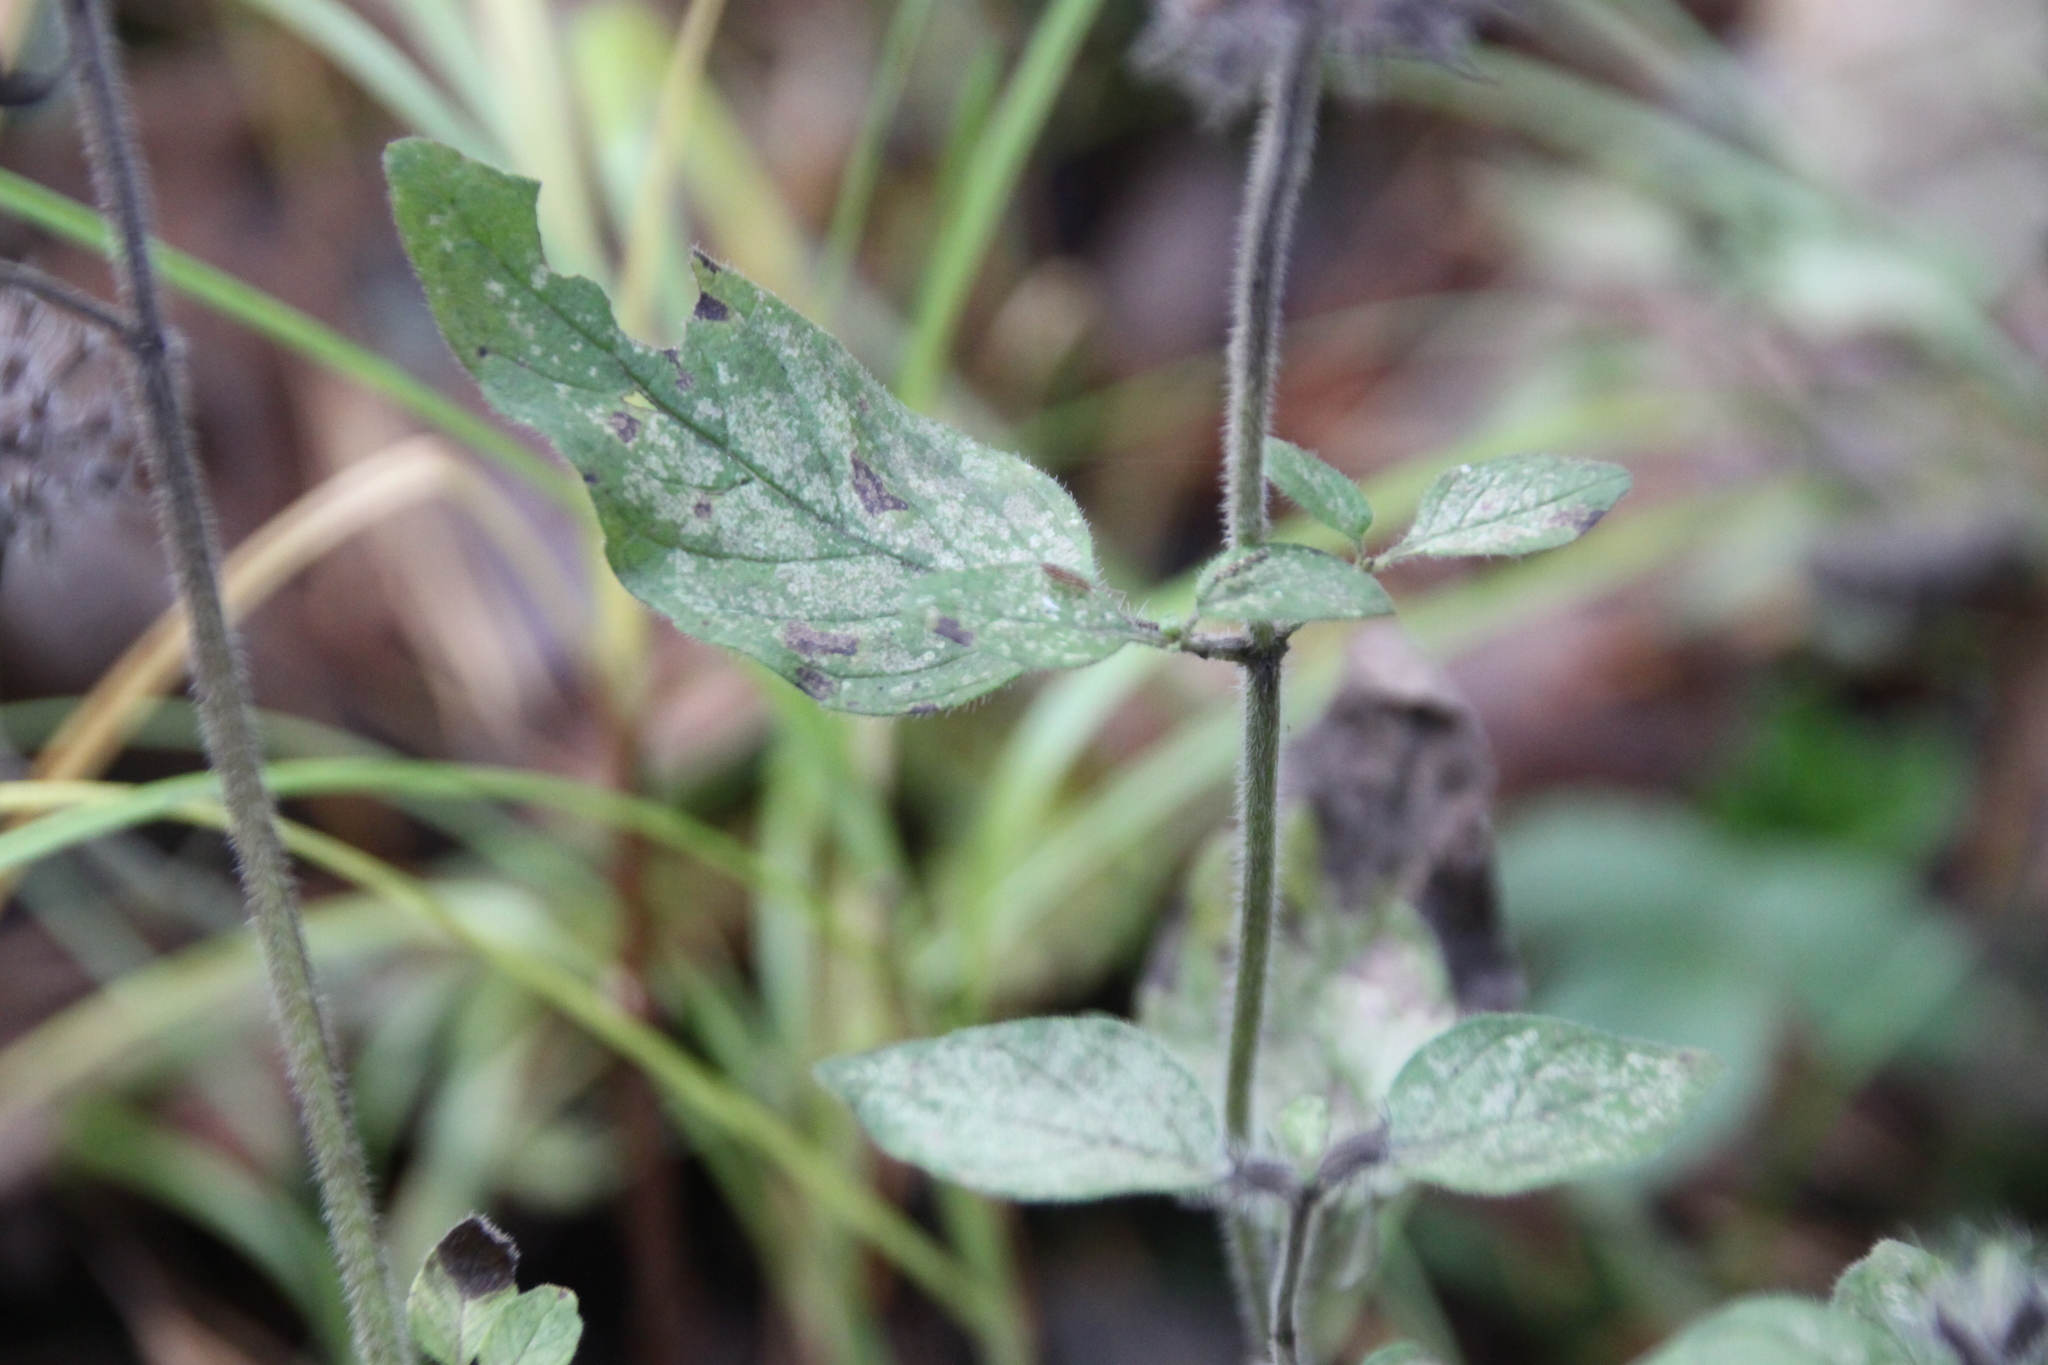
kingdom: Plantae
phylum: Tracheophyta
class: Magnoliopsida
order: Lamiales
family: Lamiaceae
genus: Clinopodium
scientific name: Clinopodium vulgare
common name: Wild basil
